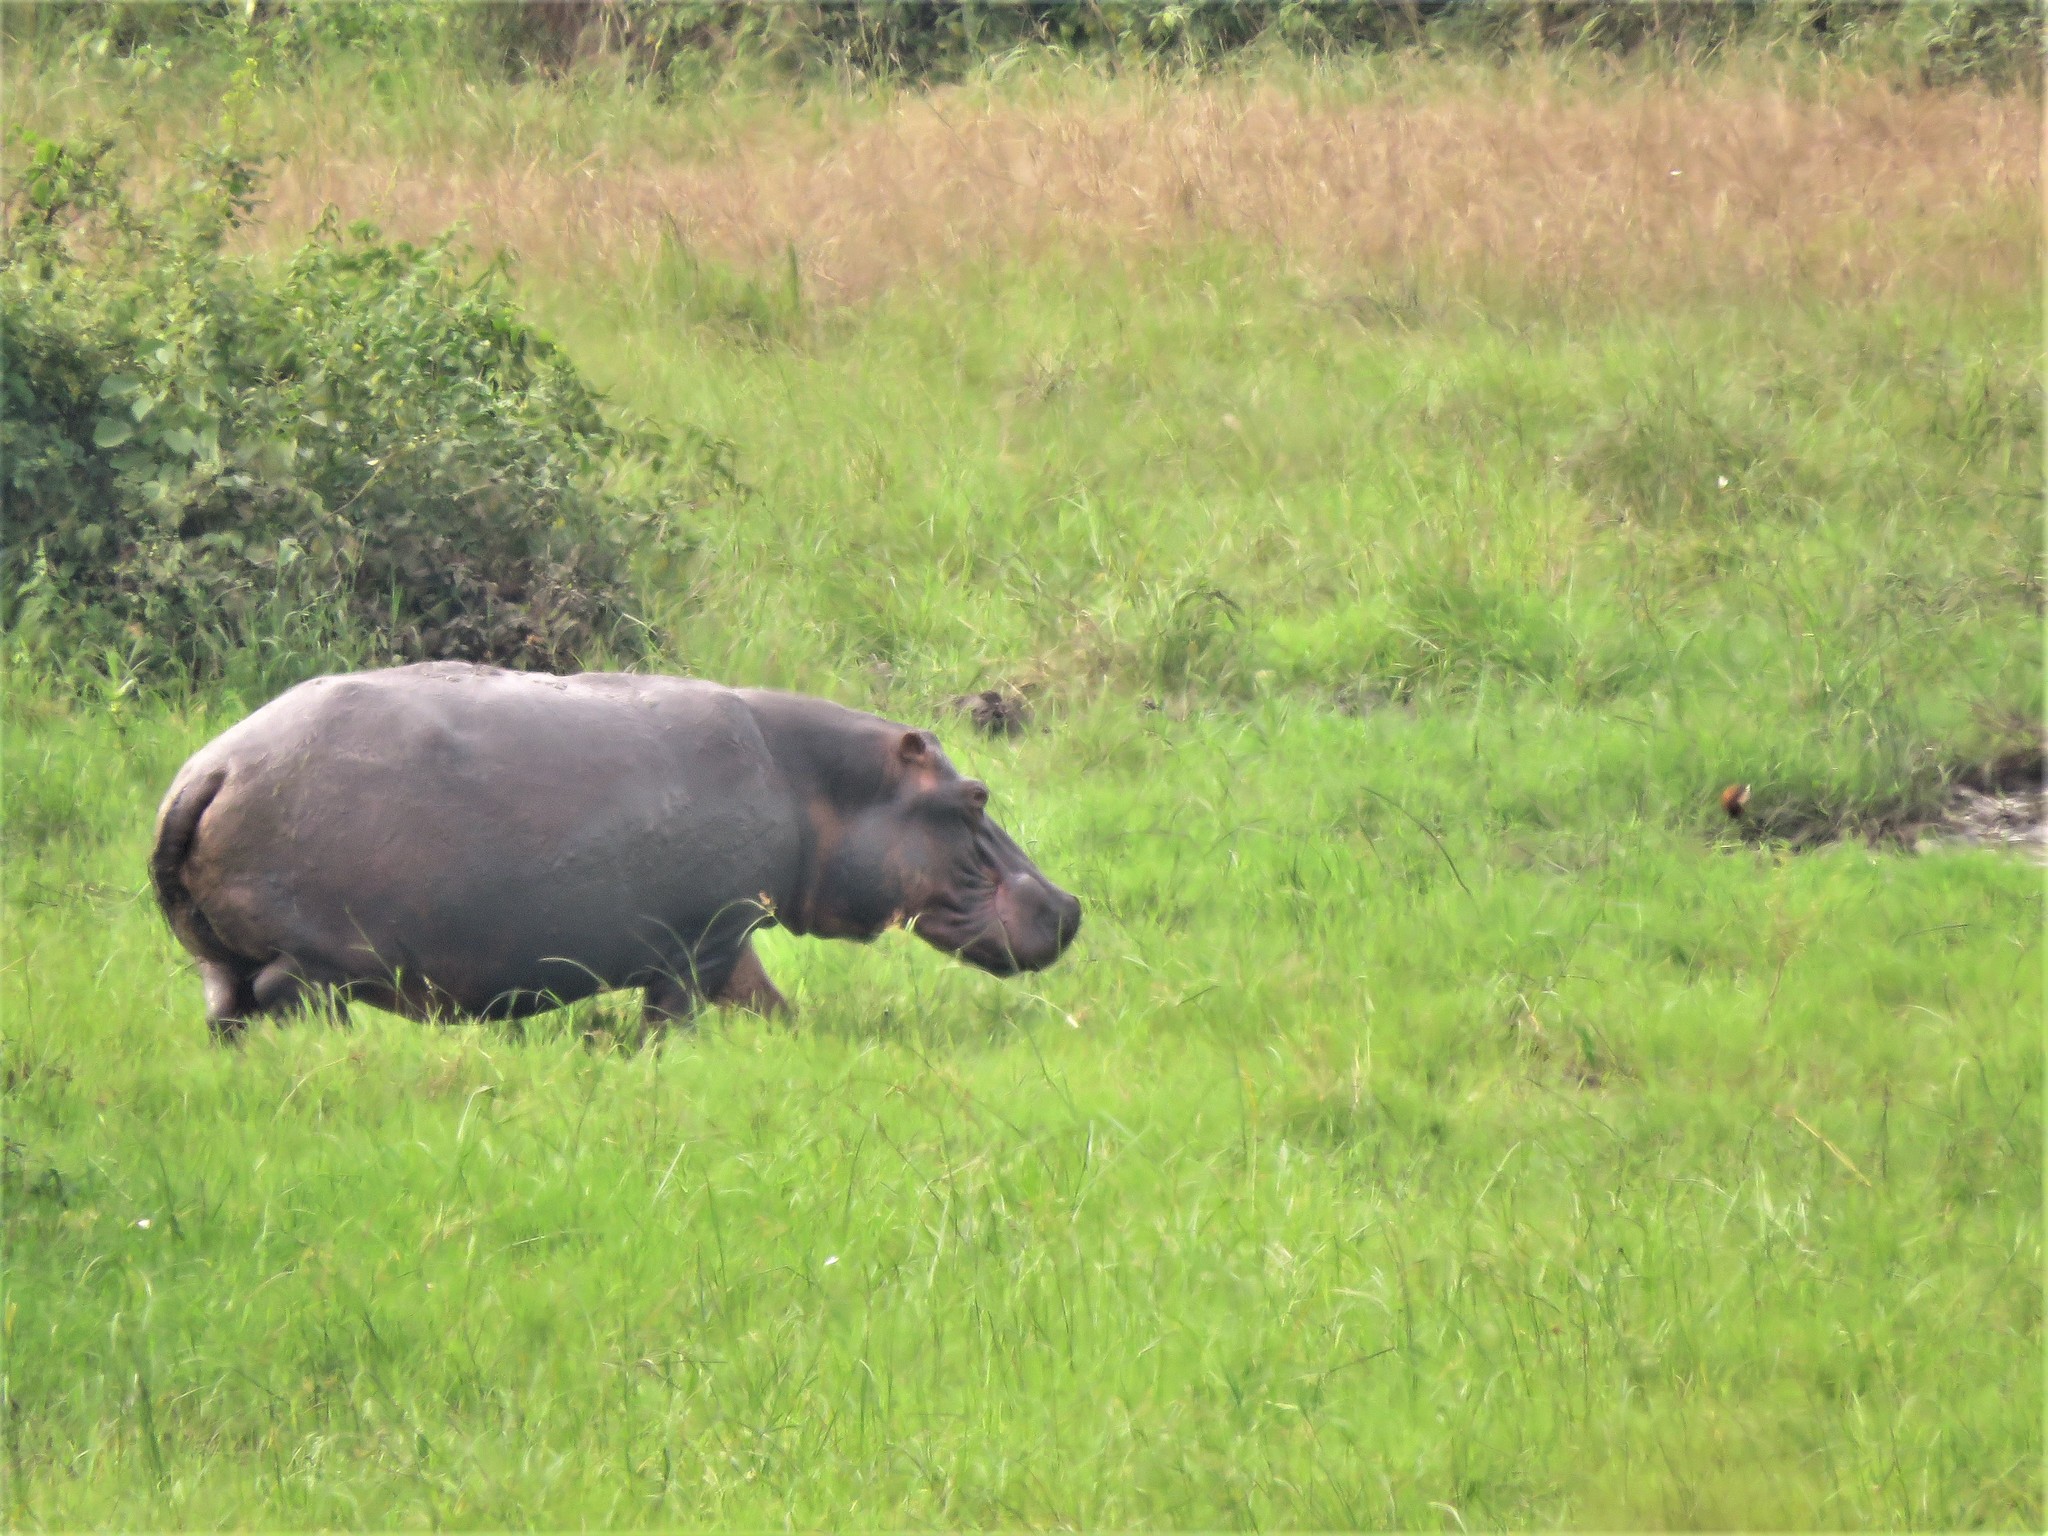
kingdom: Animalia
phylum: Chordata
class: Mammalia
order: Artiodactyla
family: Hippopotamidae
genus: Hippopotamus
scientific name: Hippopotamus amphibius
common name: Common hippopotamus
